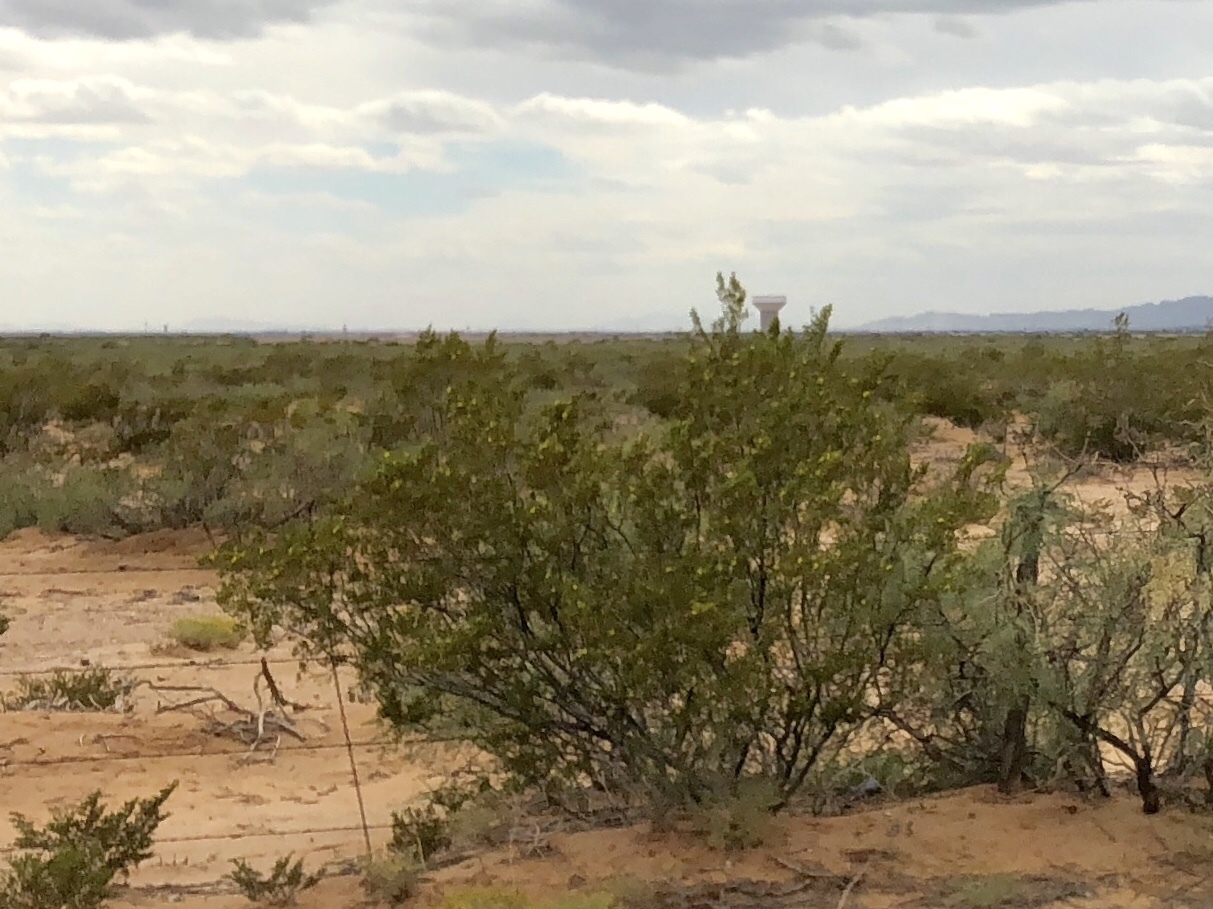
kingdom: Plantae
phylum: Tracheophyta
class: Magnoliopsida
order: Zygophyllales
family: Zygophyllaceae
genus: Larrea
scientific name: Larrea tridentata
